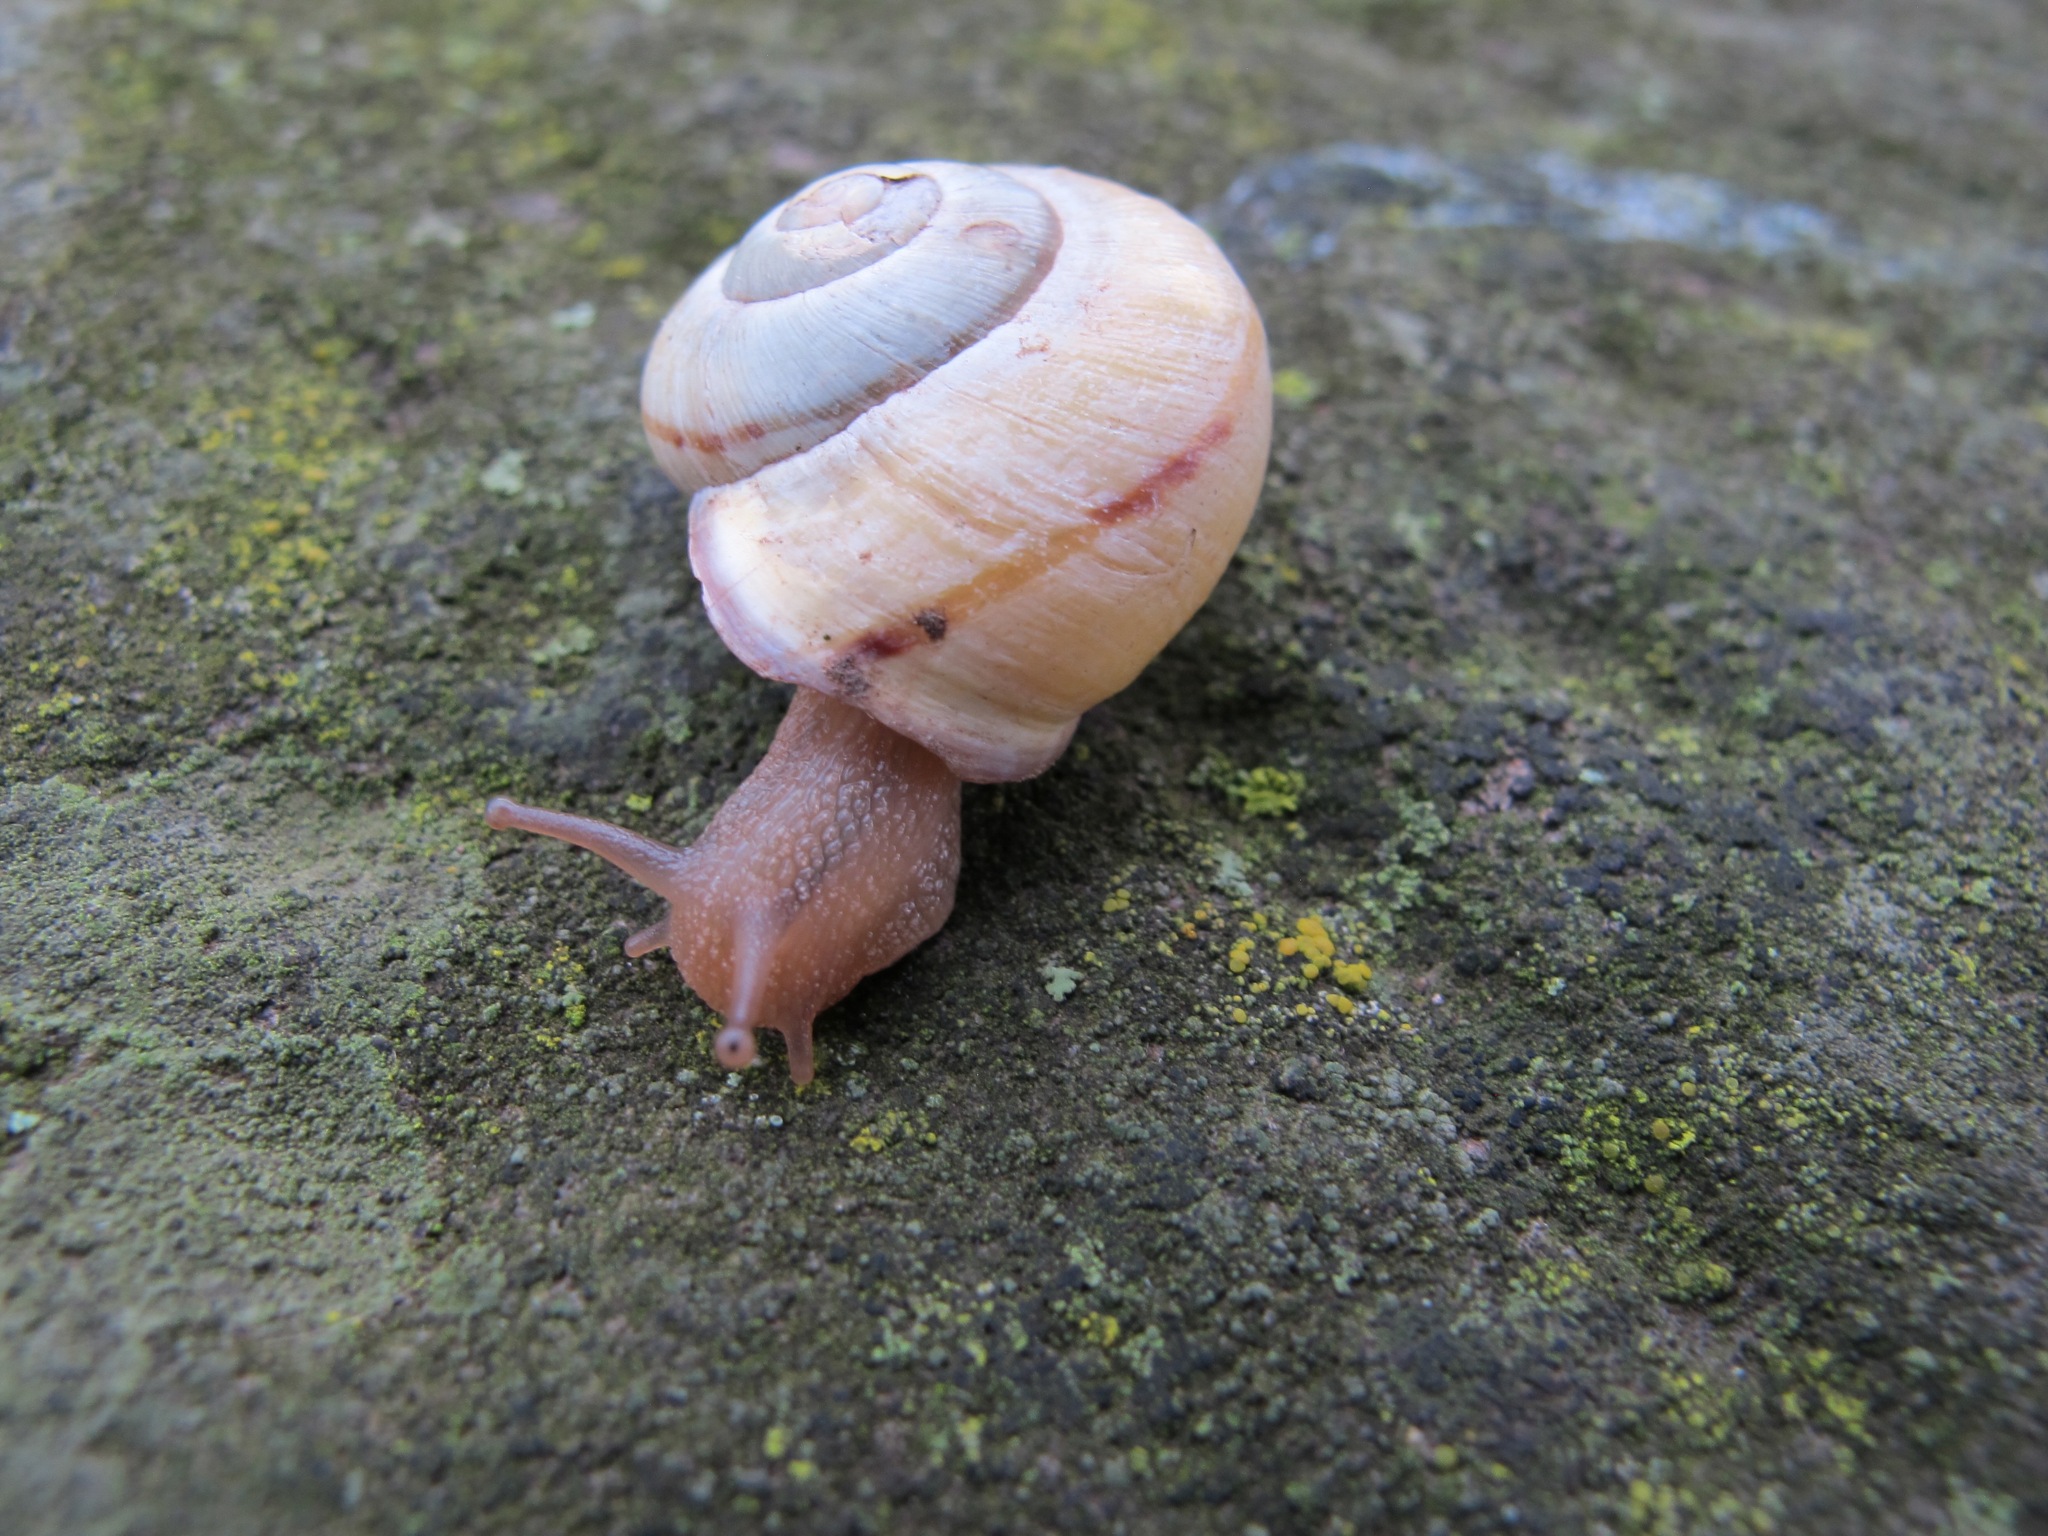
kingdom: Animalia
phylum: Mollusca
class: Gastropoda
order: Stylommatophora
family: Helicidae
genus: Cepaea
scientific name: Cepaea nemoralis
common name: Grovesnail
